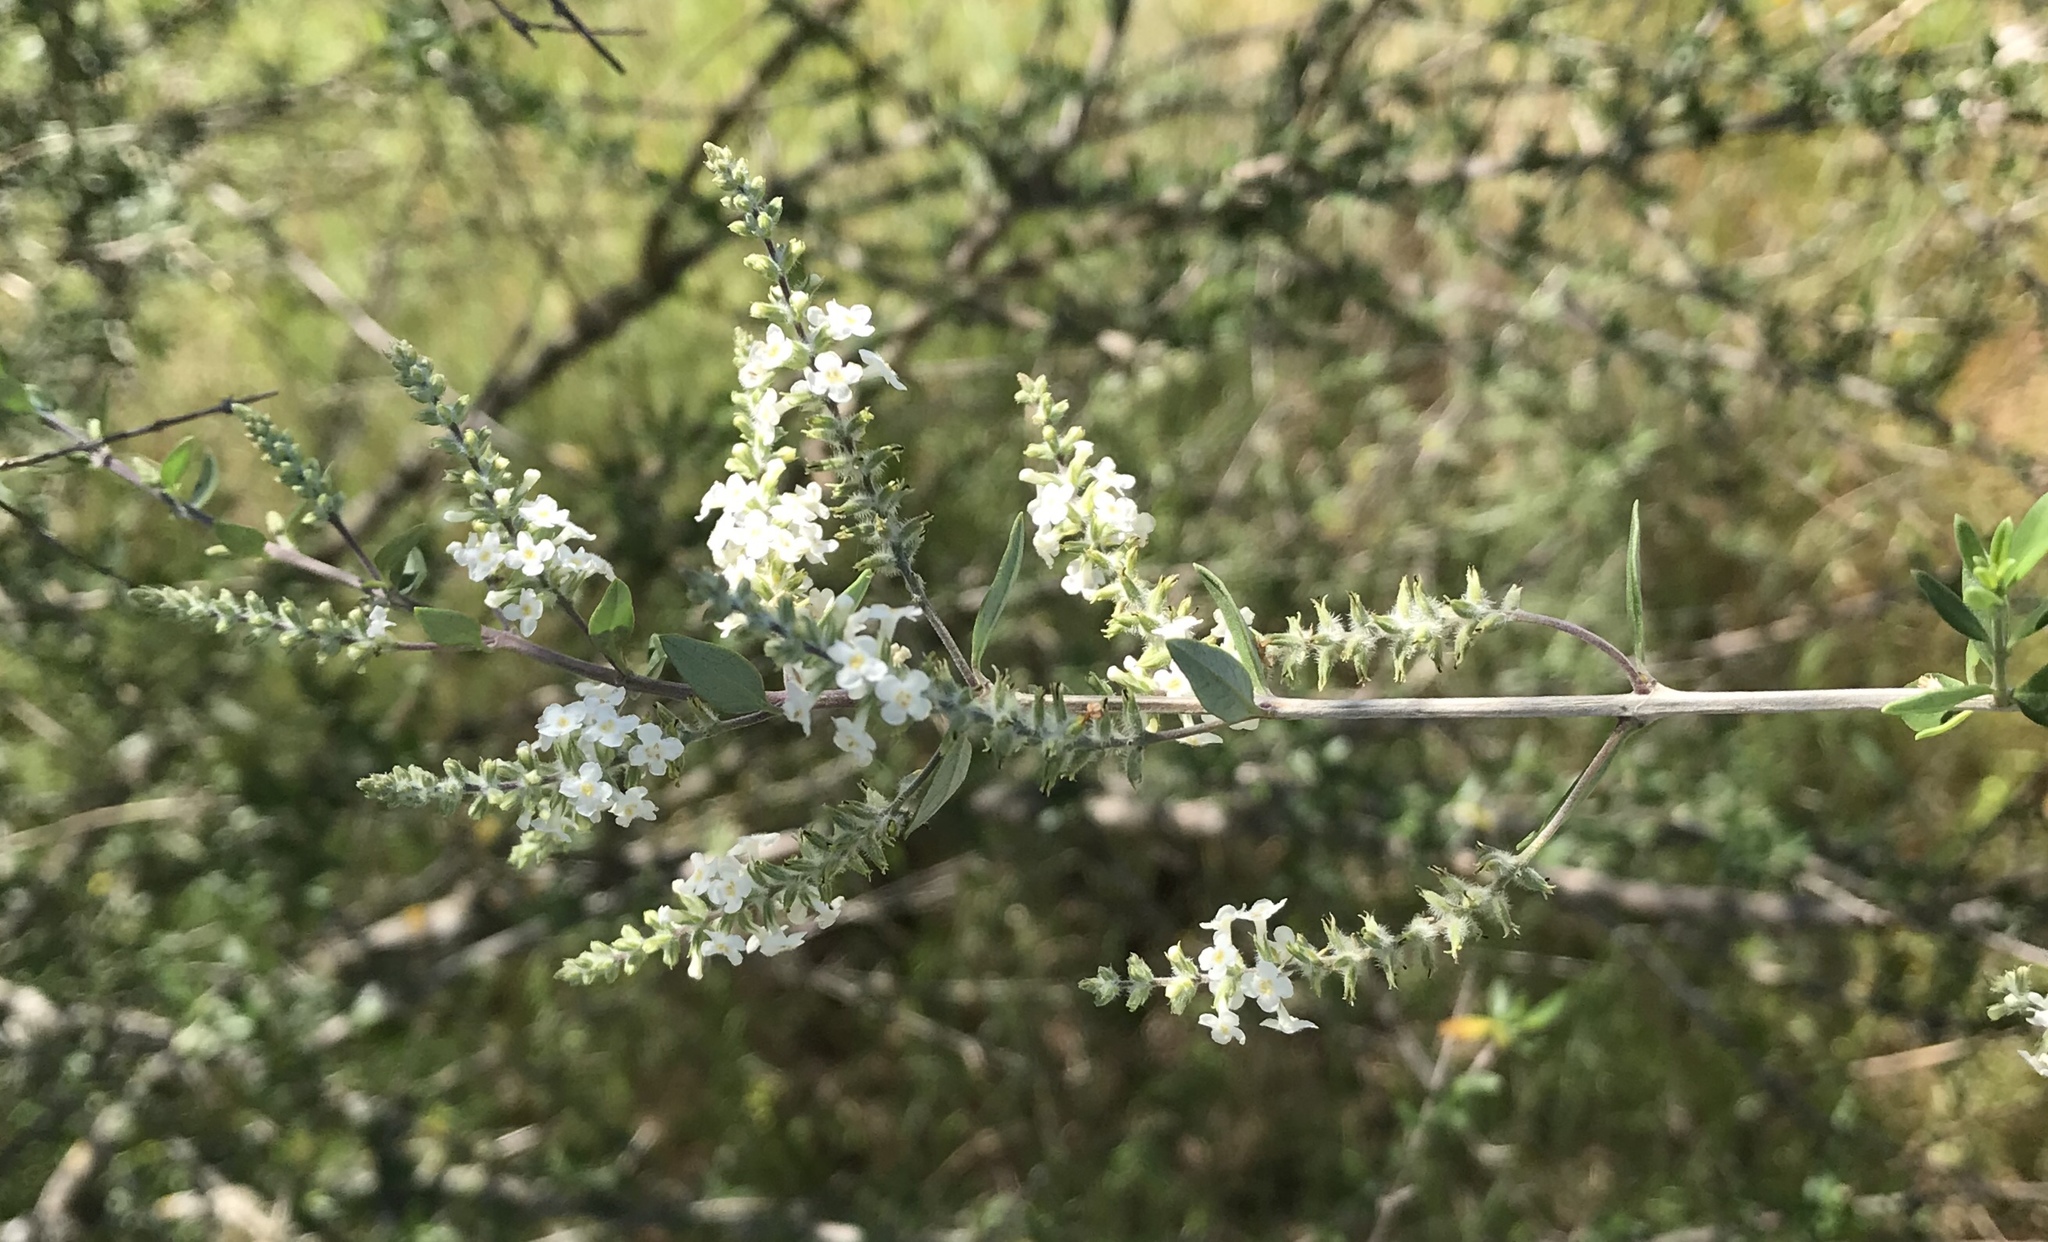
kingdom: Plantae
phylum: Tracheophyta
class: Magnoliopsida
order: Lamiales
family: Verbenaceae
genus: Aloysia
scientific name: Aloysia gratissima
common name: Common bee-brush
